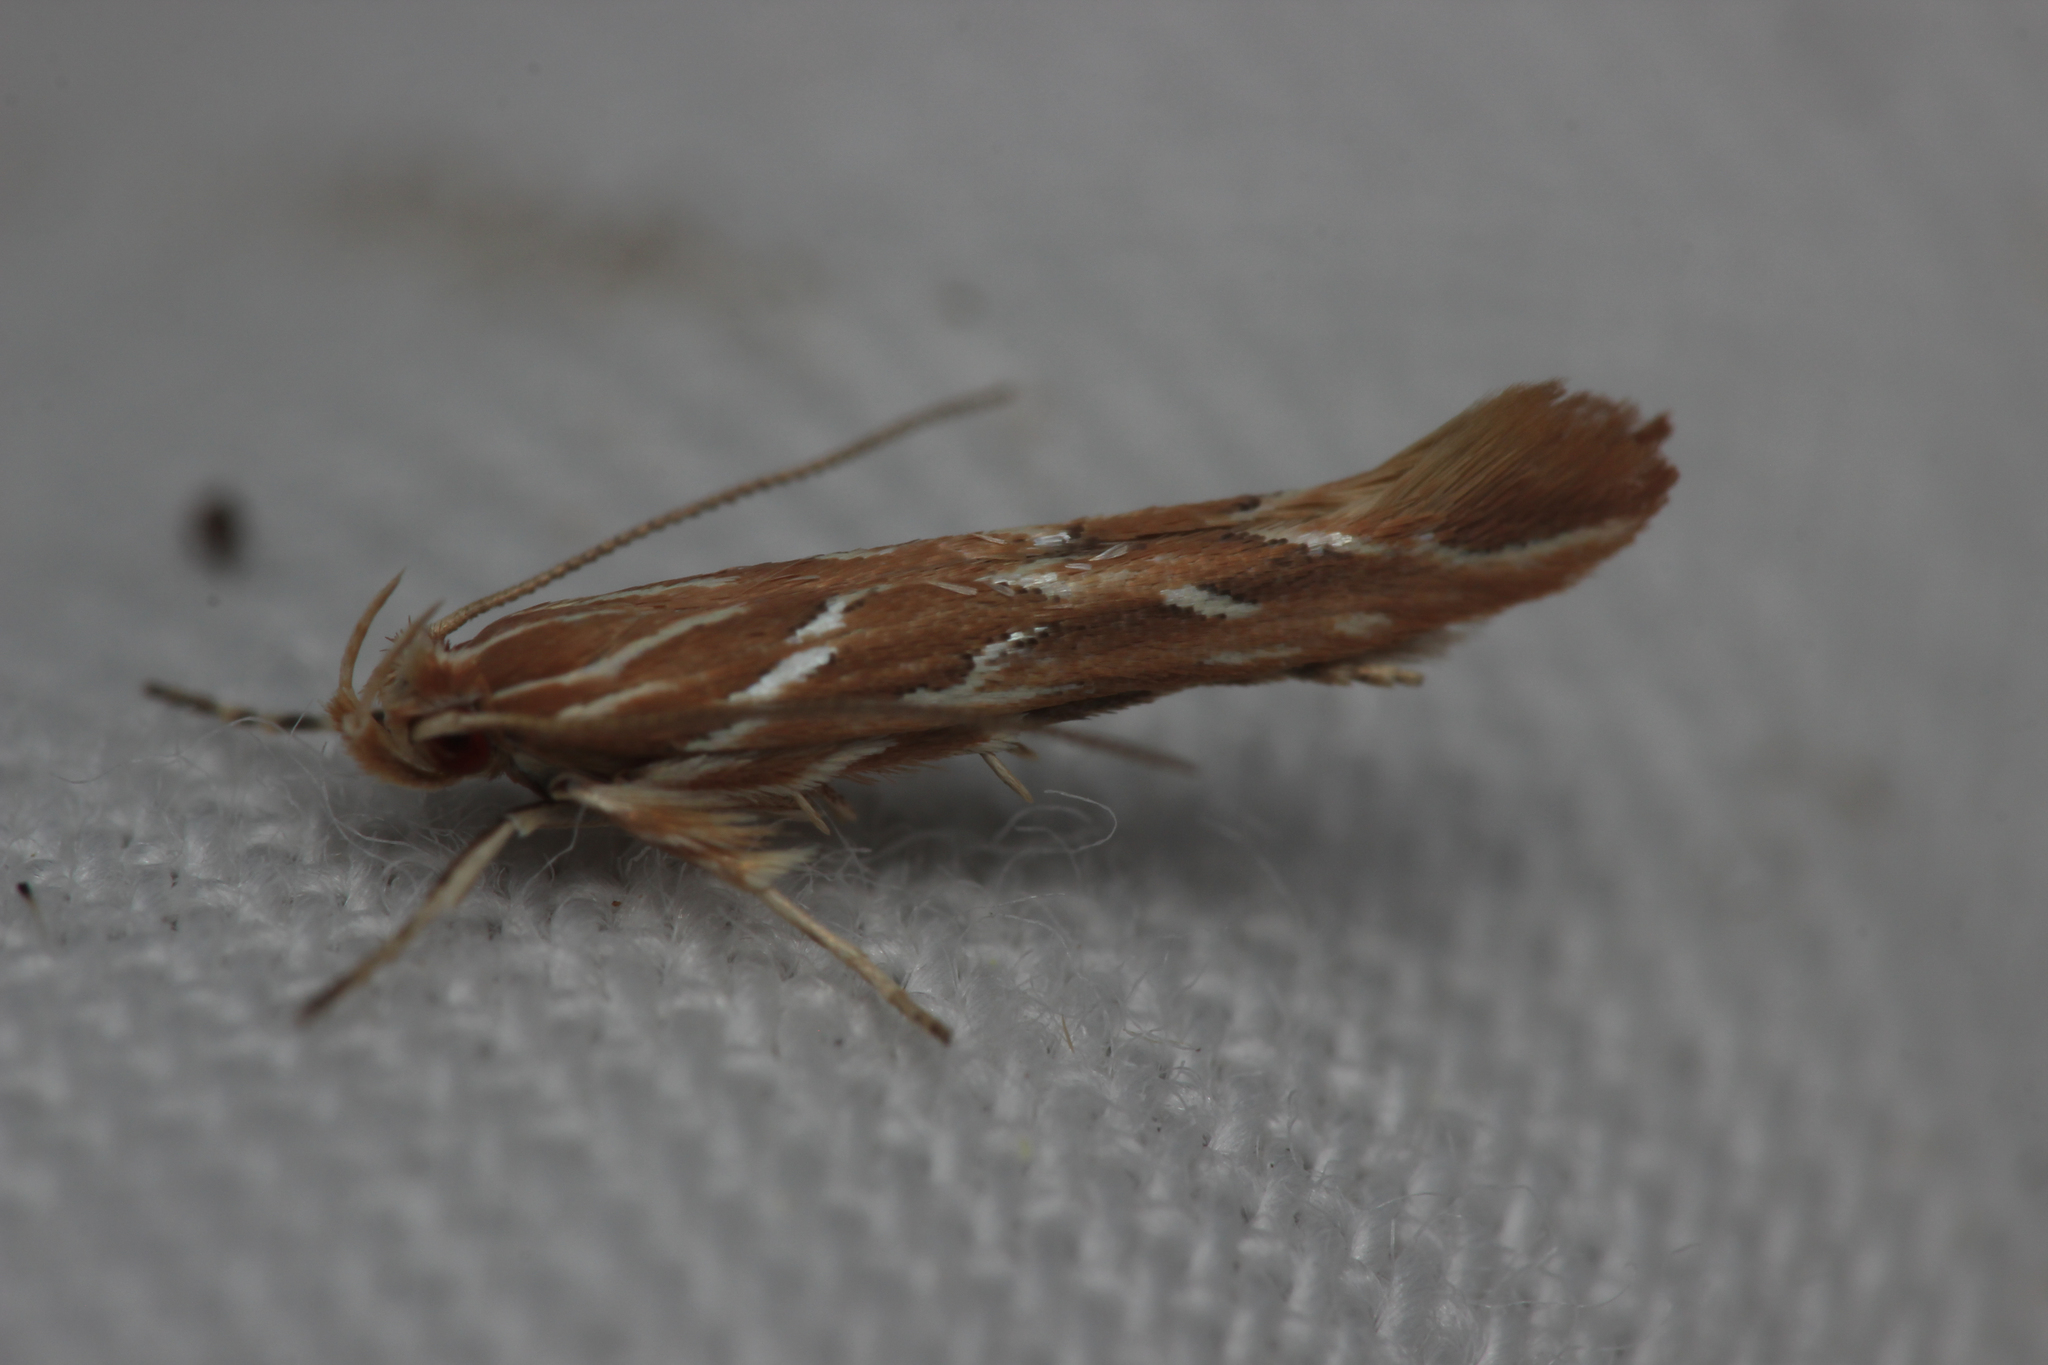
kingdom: Animalia
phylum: Arthropoda
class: Insecta
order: Lepidoptera
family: Cosmopterigidae
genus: Pyroderces
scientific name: Pyroderces argyrogrammos
